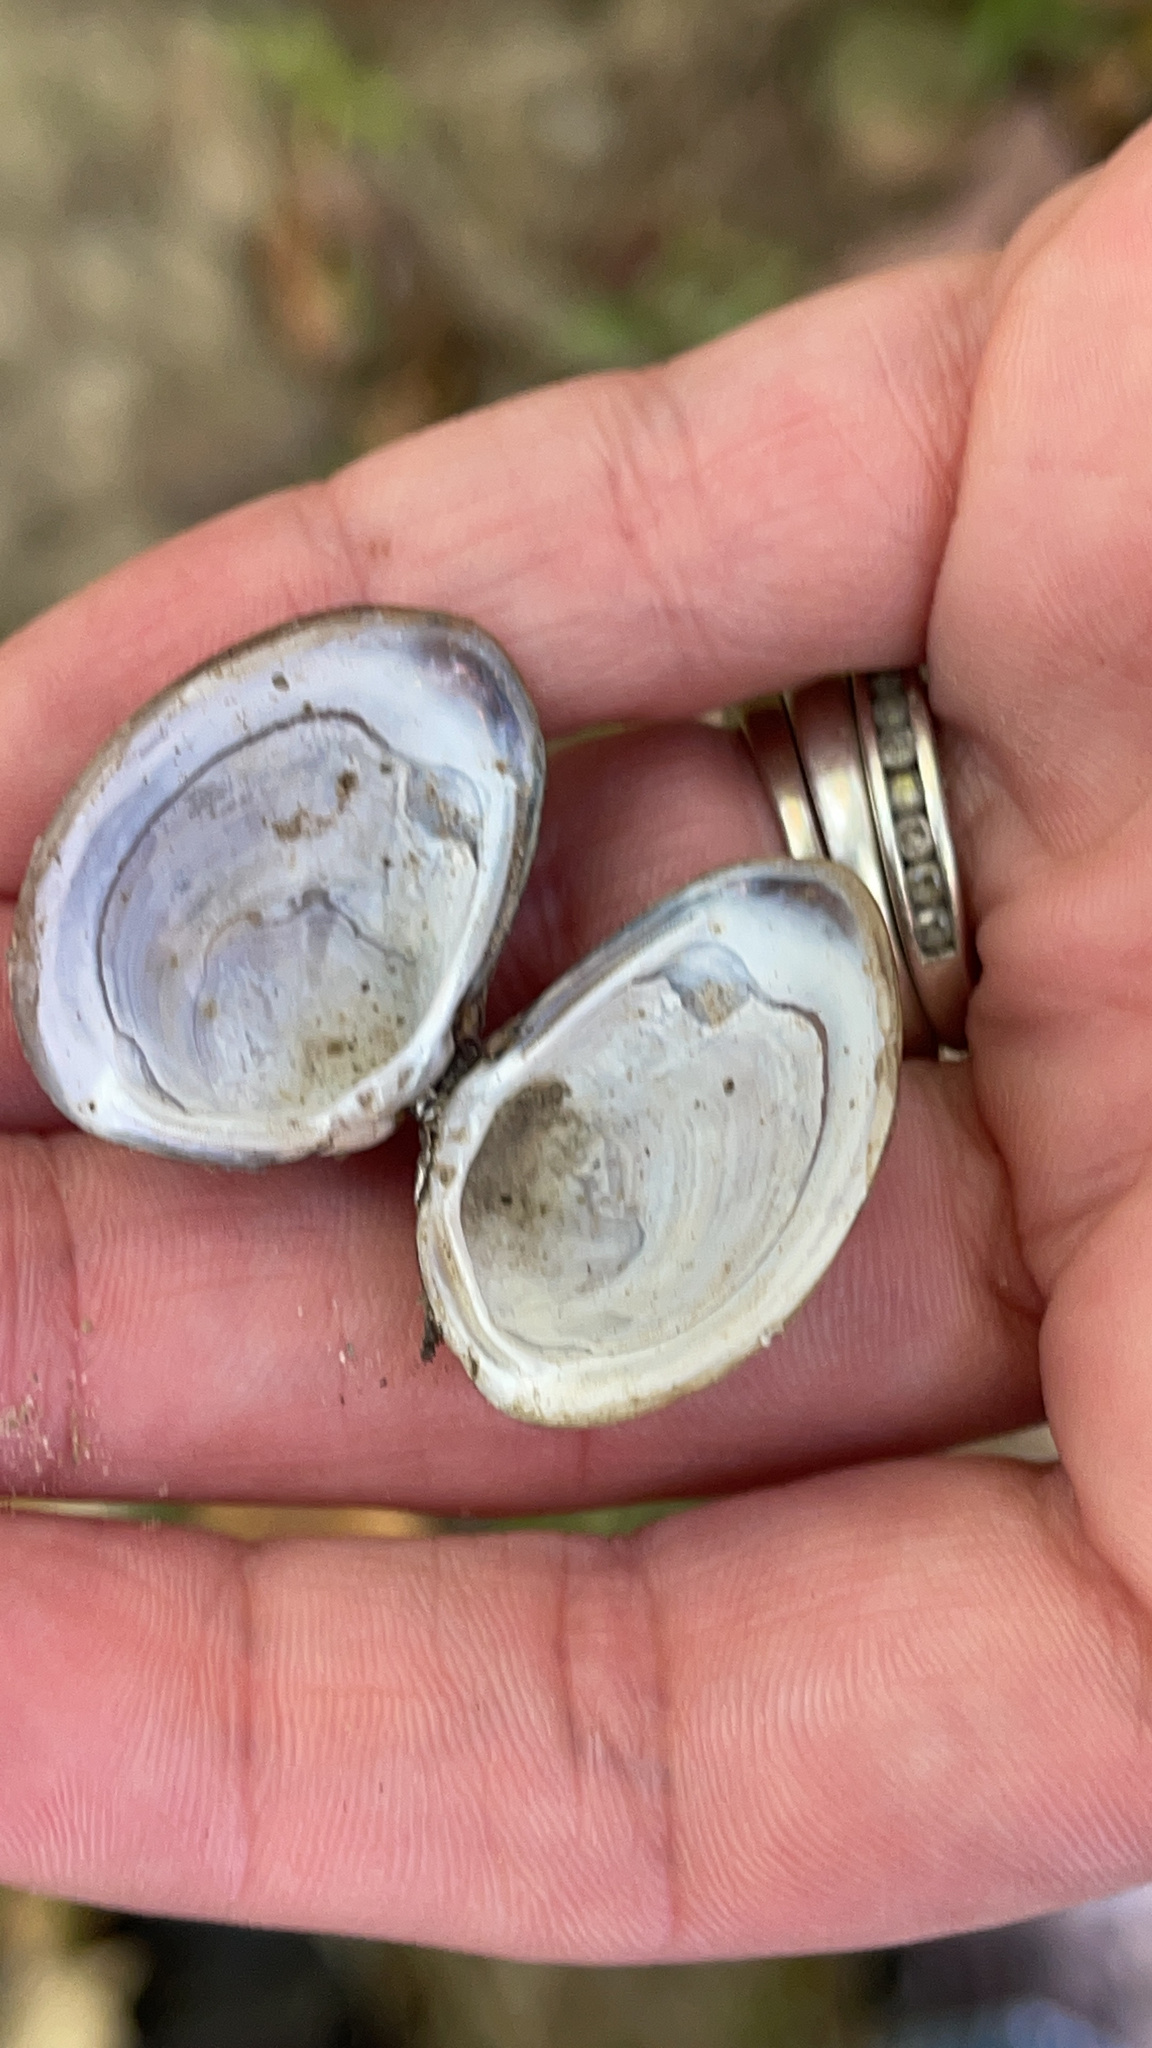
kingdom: Animalia
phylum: Mollusca
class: Bivalvia
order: Venerida
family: Cyrenidae
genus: Corbicula
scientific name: Corbicula fluminea
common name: Asian clam
